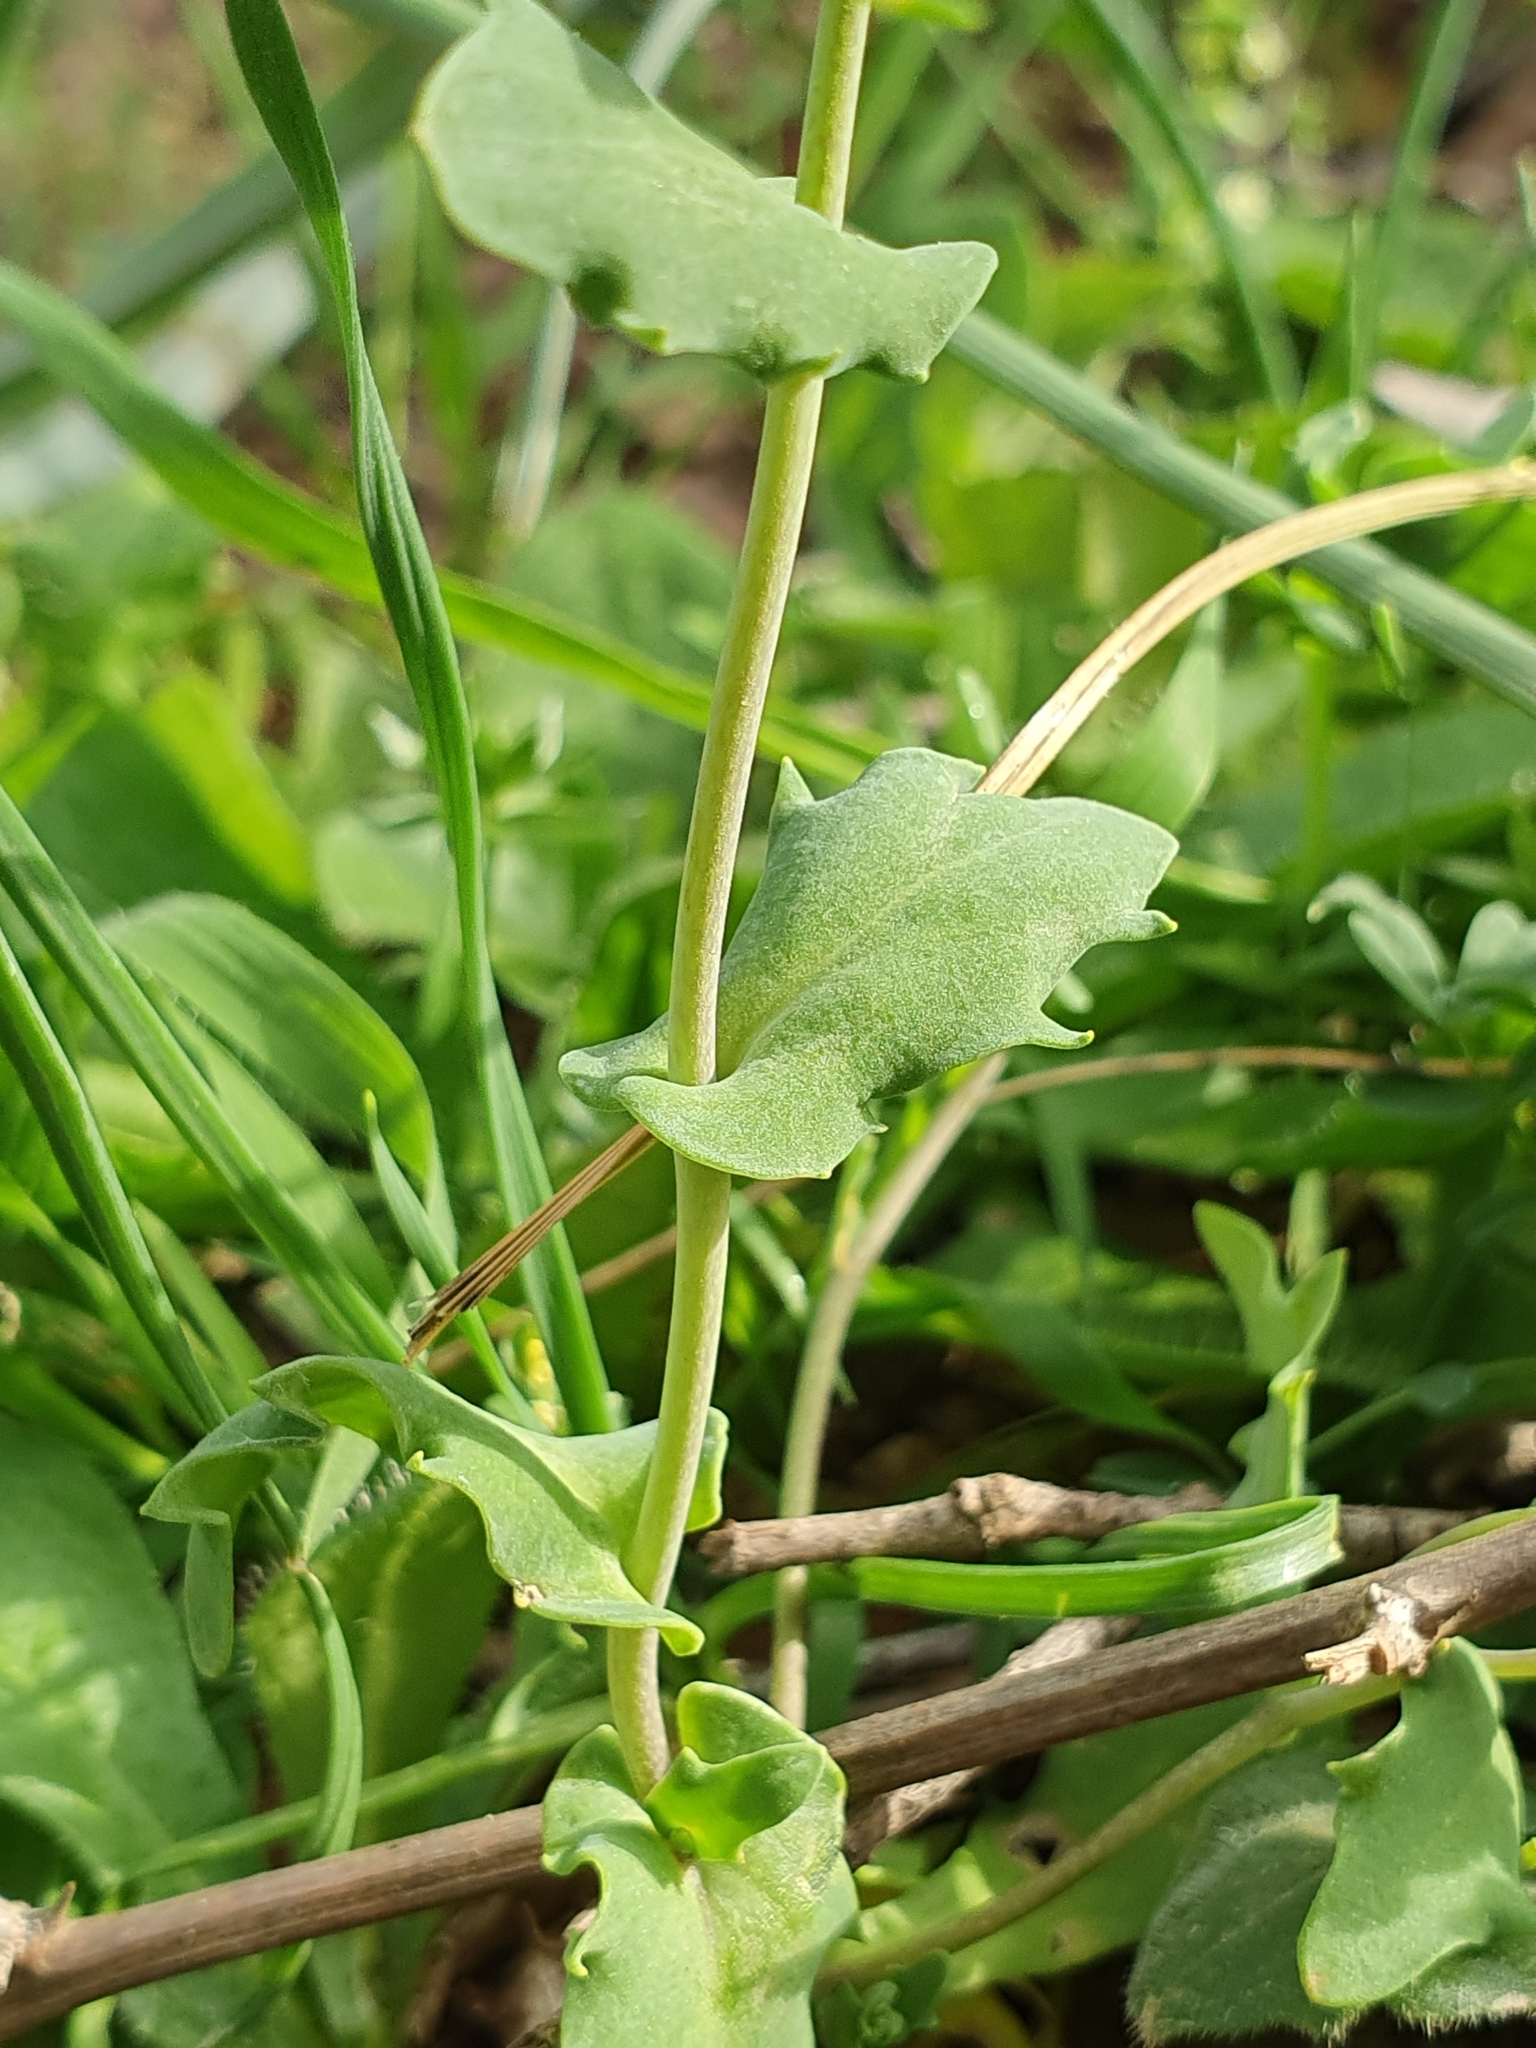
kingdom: Plantae
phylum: Tracheophyta
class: Magnoliopsida
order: Brassicales
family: Brassicaceae
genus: Bivonaea
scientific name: Bivonaea lutea
